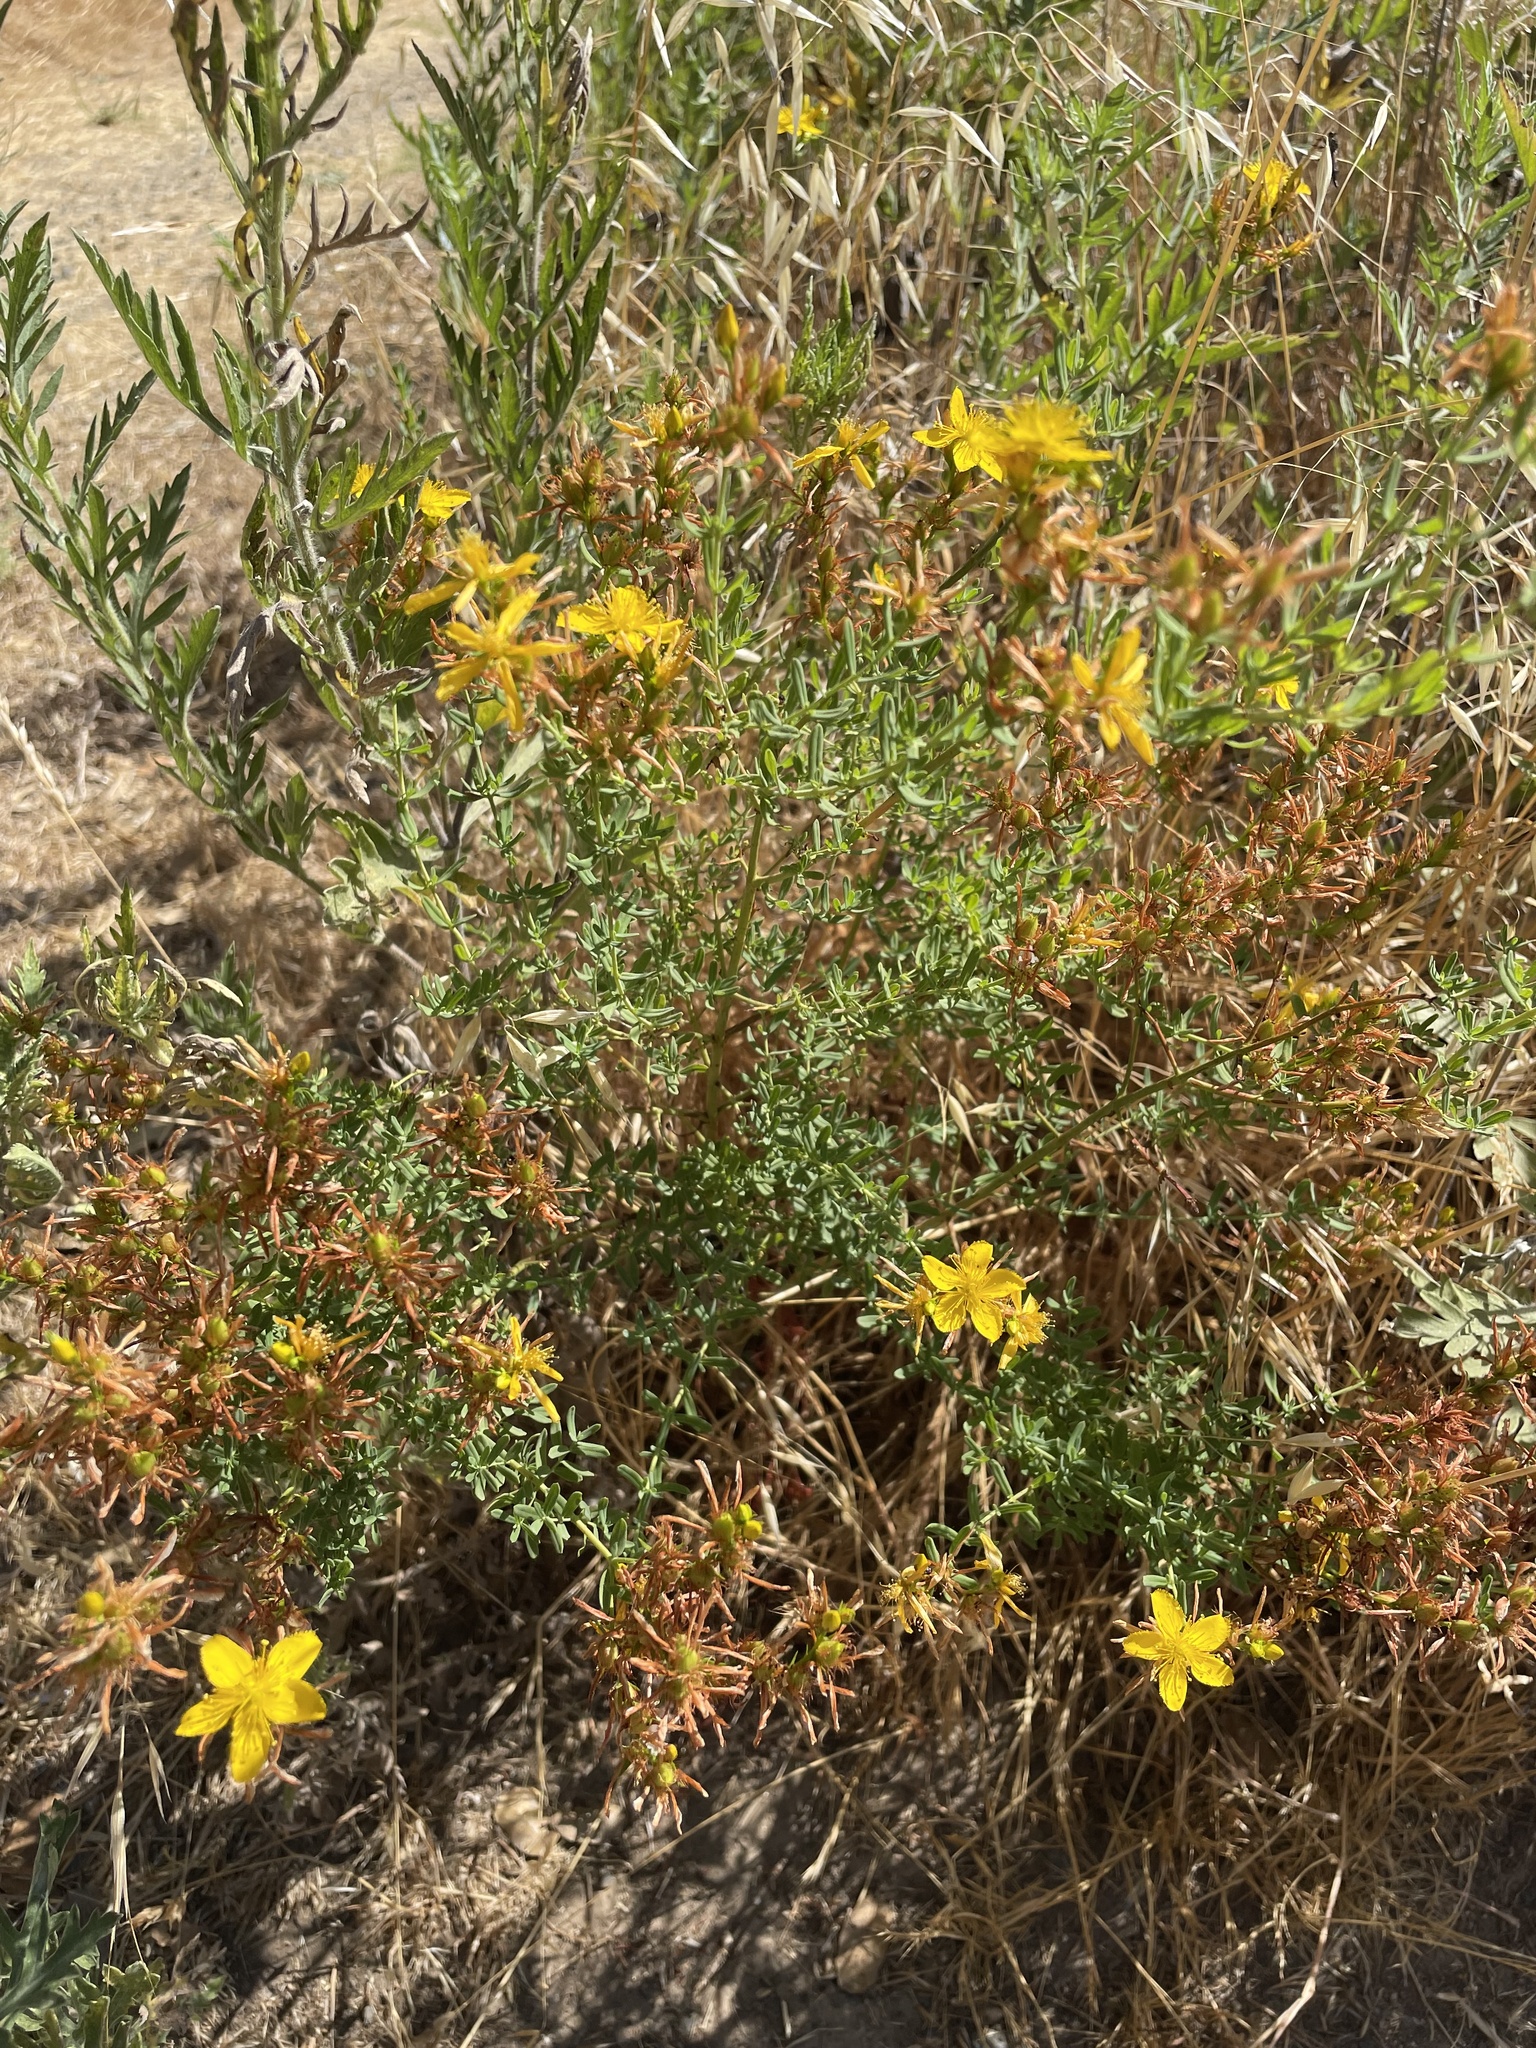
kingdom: Plantae
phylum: Tracheophyta
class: Magnoliopsida
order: Malpighiales
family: Hypericaceae
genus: Hypericum
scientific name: Hypericum perforatum
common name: Common st. johnswort
